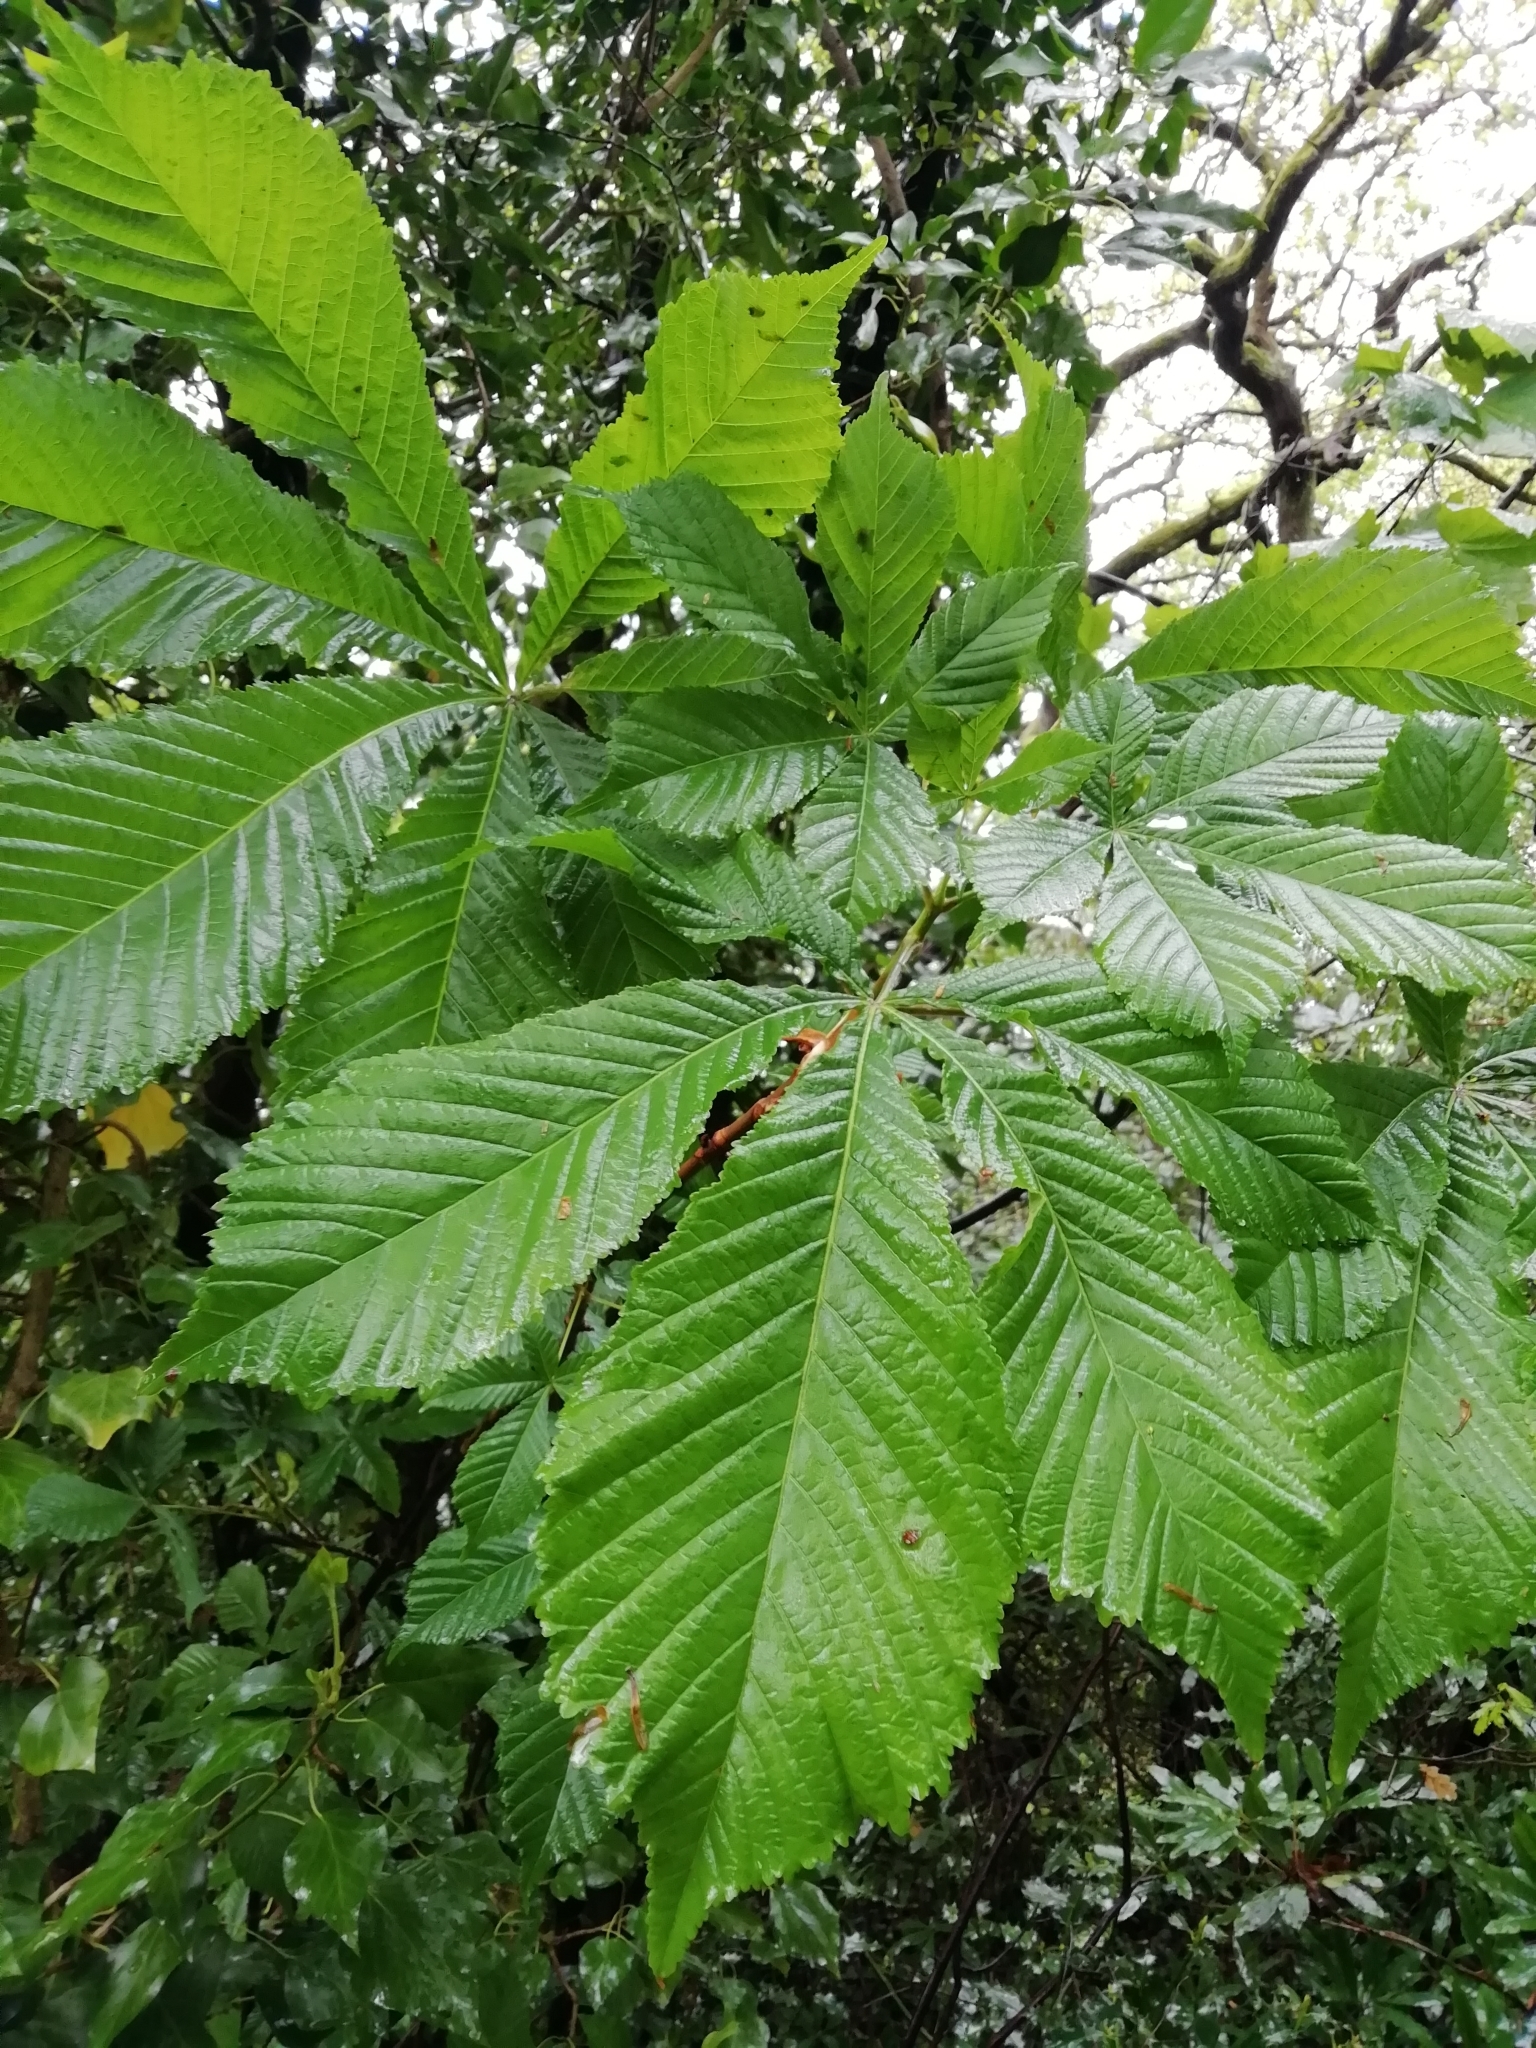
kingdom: Plantae
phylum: Tracheophyta
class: Magnoliopsida
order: Sapindales
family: Sapindaceae
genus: Aesculus
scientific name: Aesculus hippocastanum
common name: Horse-chestnut
